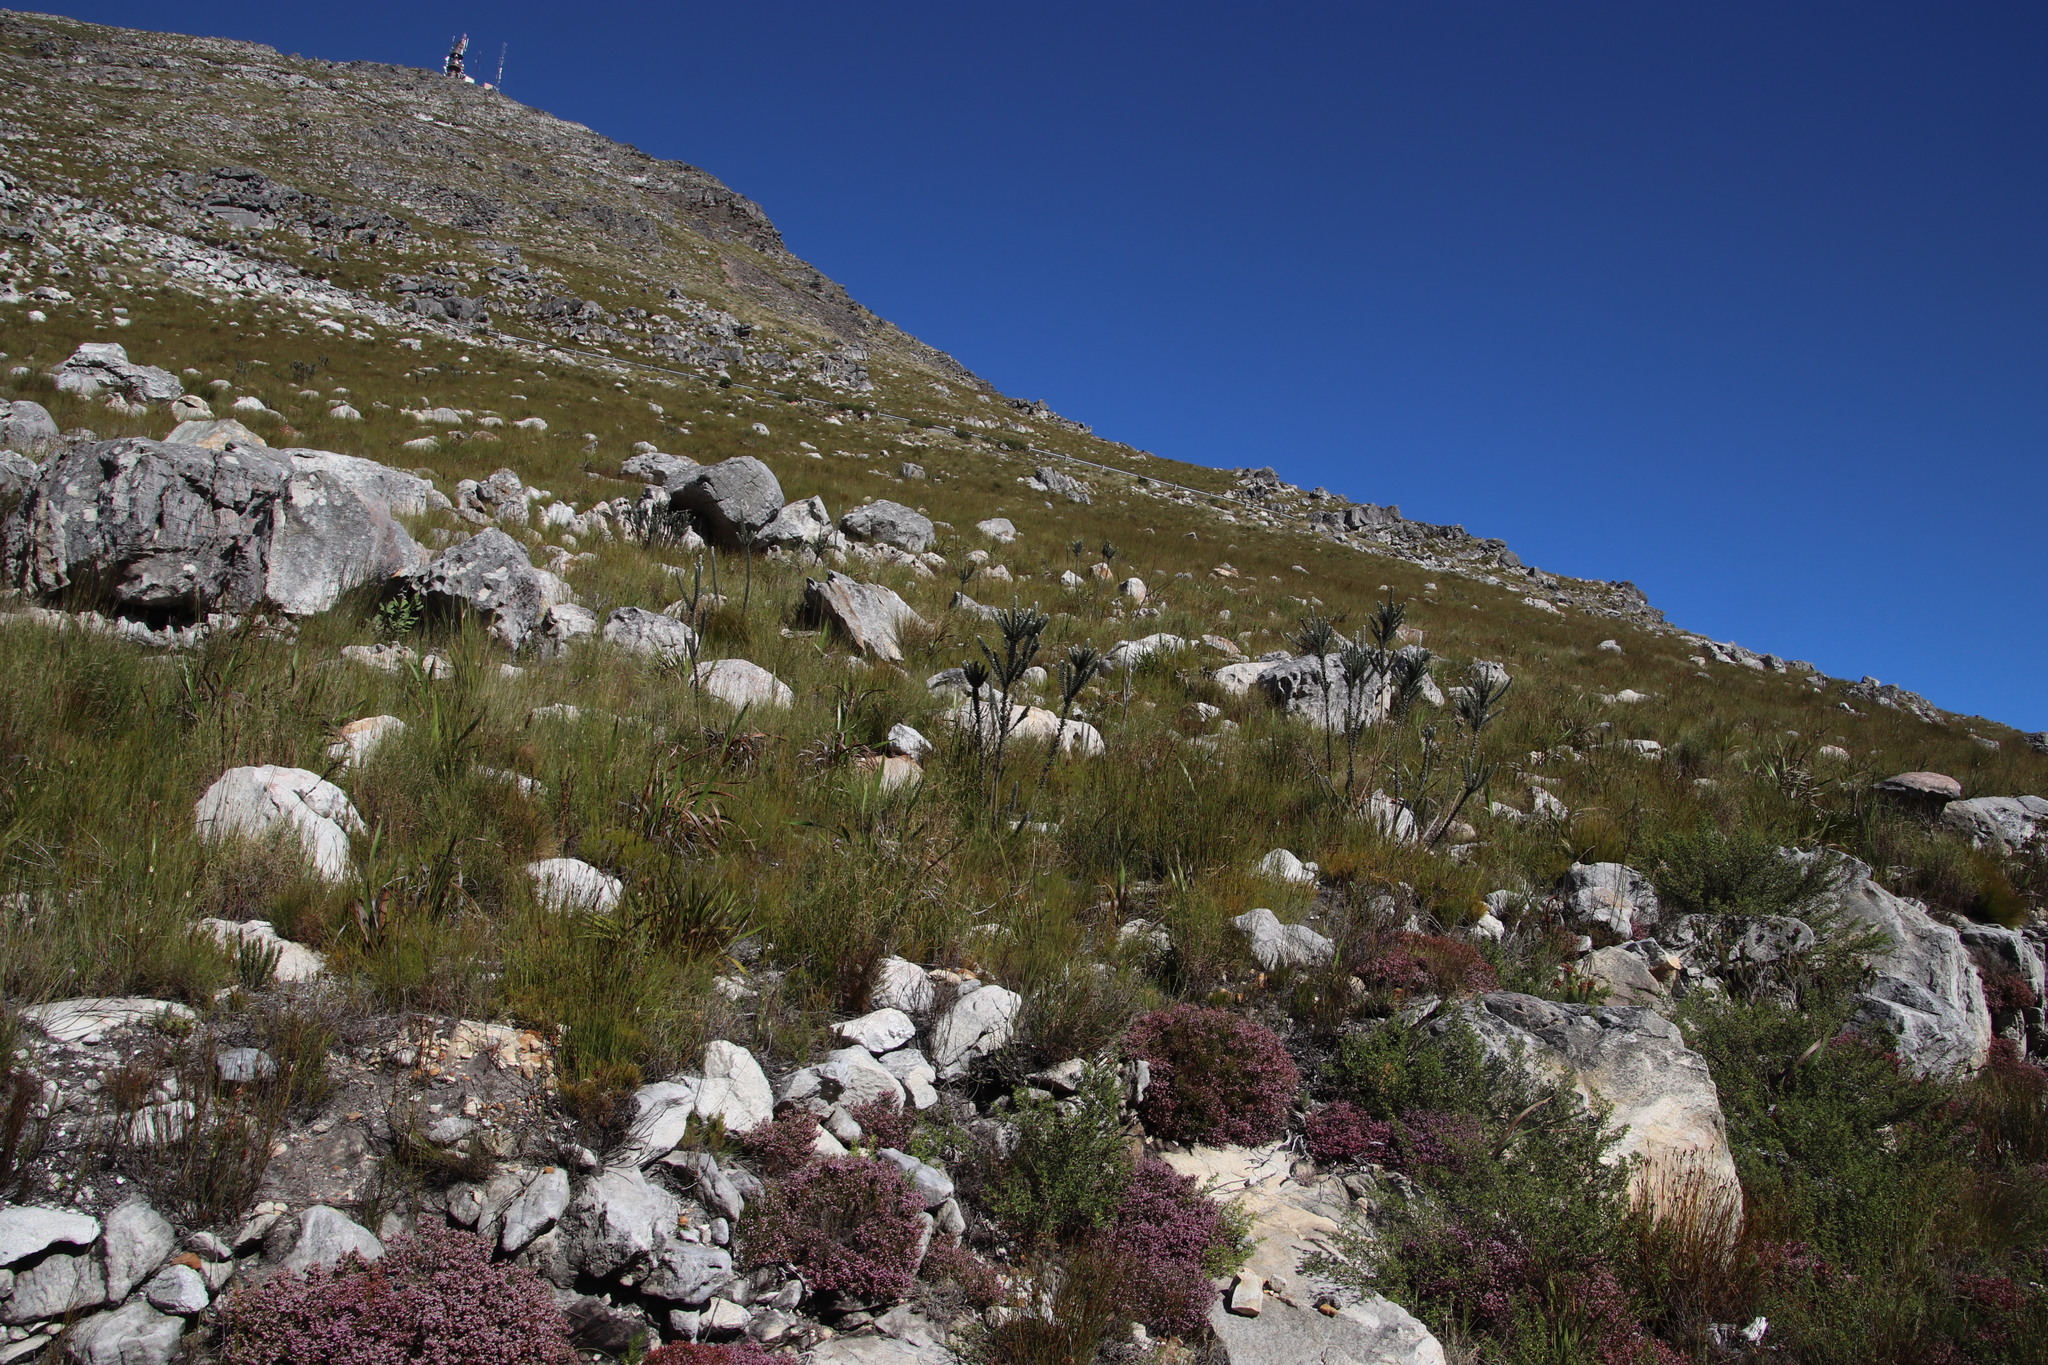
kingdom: Plantae
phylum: Tracheophyta
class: Magnoliopsida
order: Fabales
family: Fabaceae
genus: Liparia
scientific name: Liparia vestita
